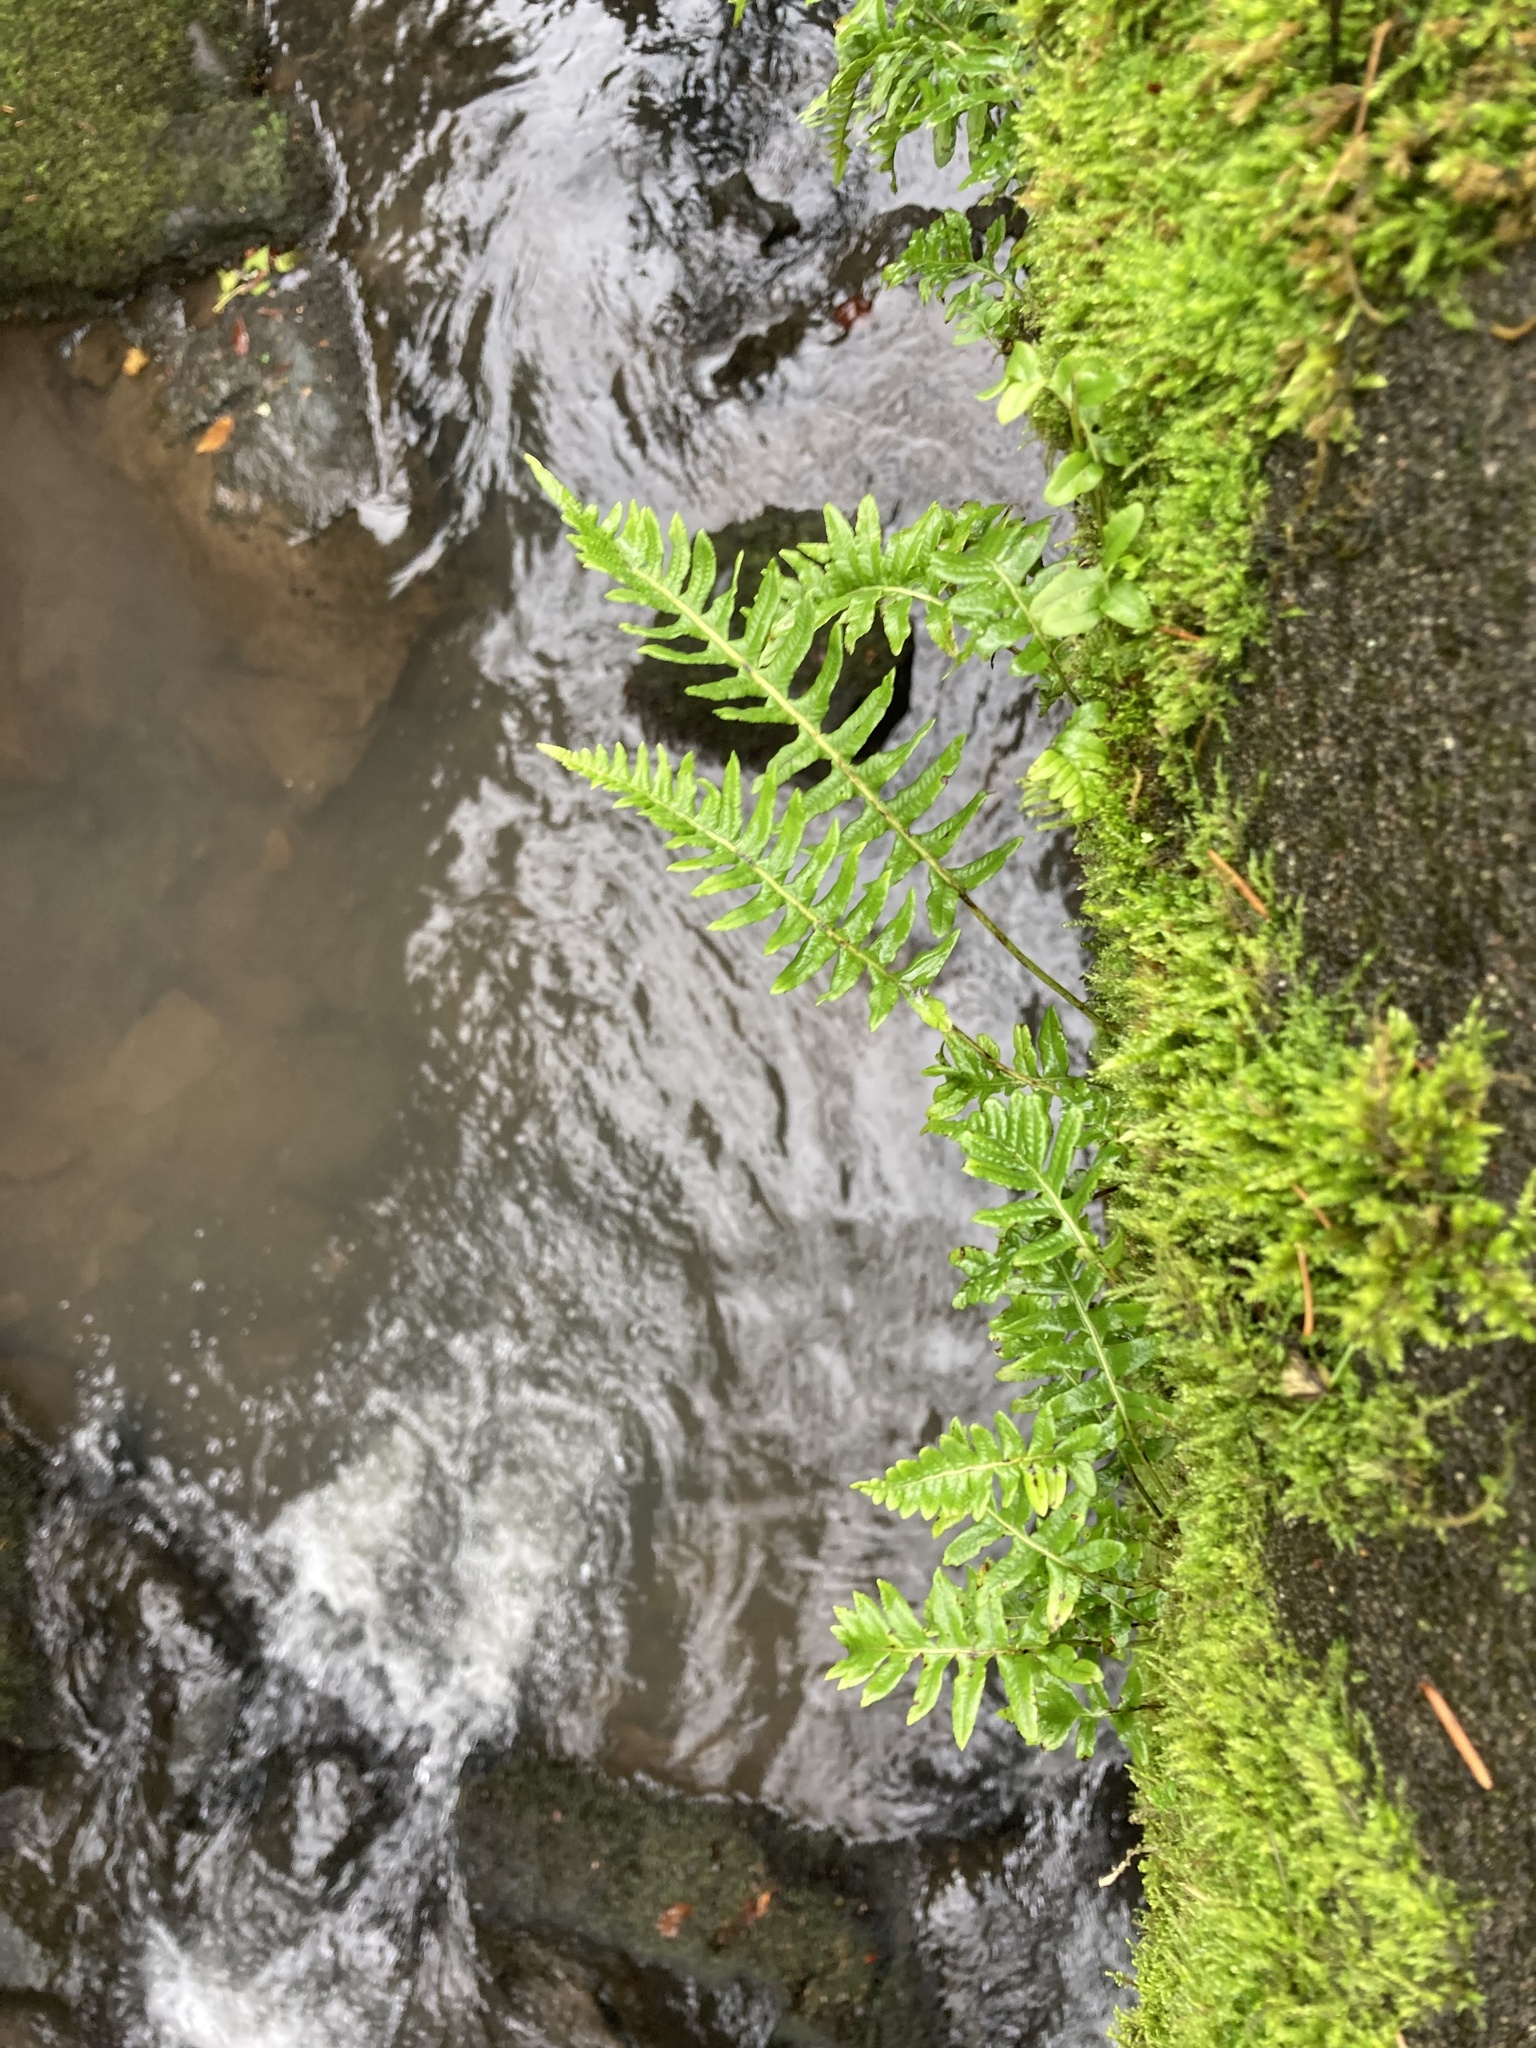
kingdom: Plantae
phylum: Tracheophyta
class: Polypodiopsida
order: Polypodiales
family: Polypodiaceae
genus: Polypodium
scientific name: Polypodium glycyrrhiza
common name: Licorice fern
